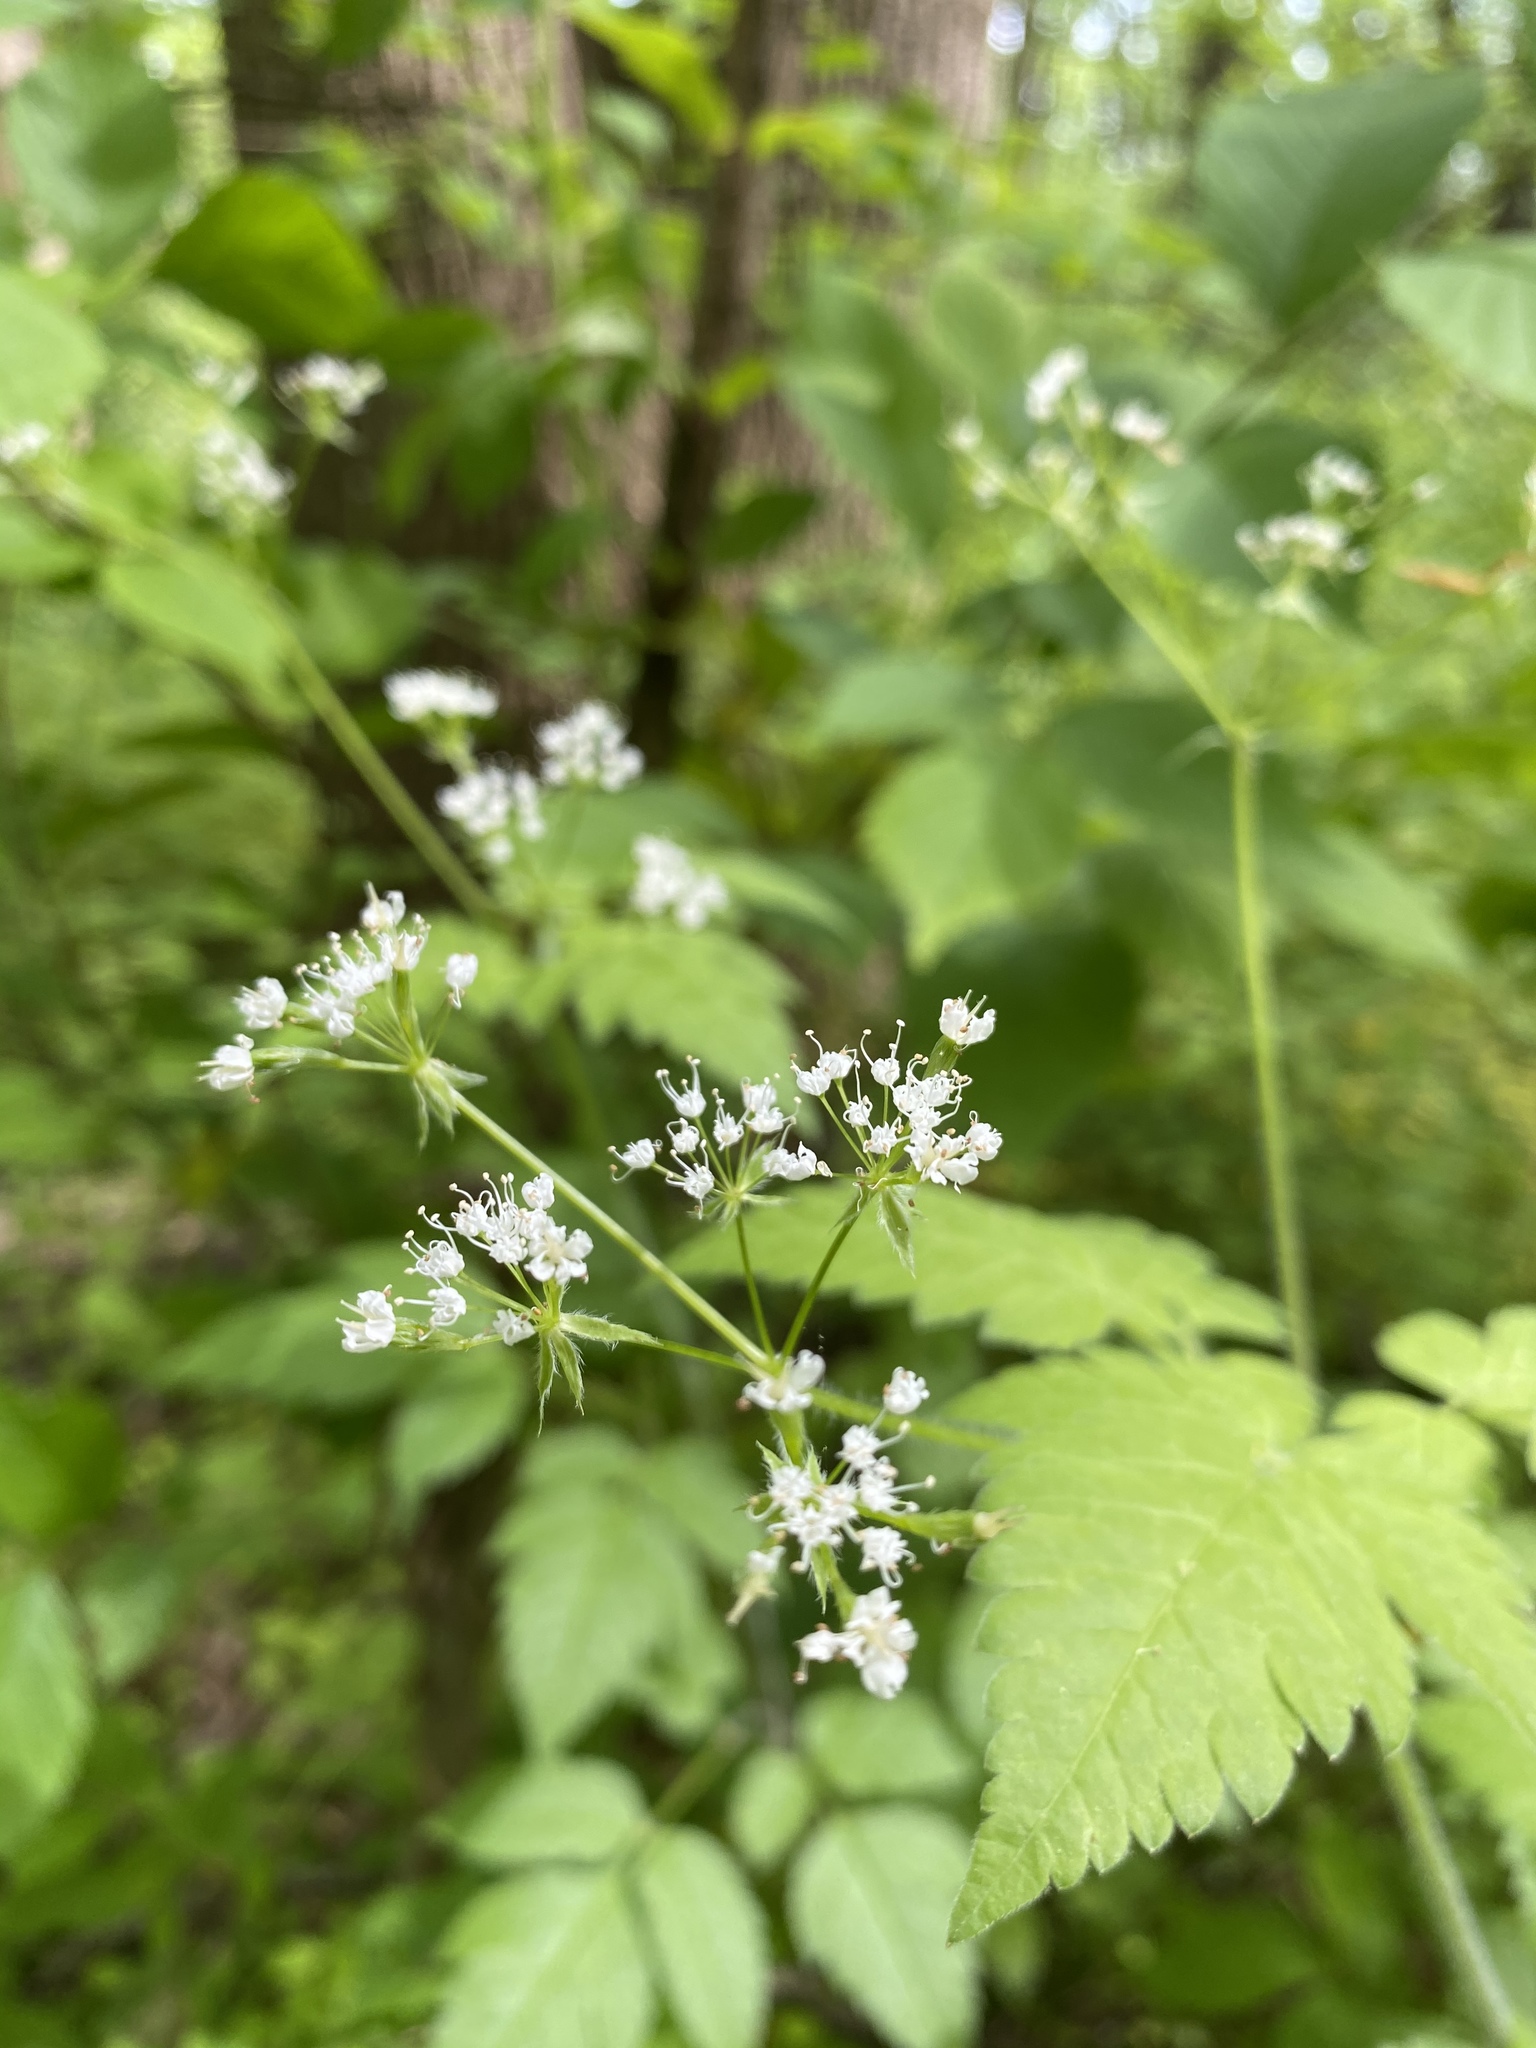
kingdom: Plantae
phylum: Tracheophyta
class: Magnoliopsida
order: Apiales
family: Apiaceae
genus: Osmorhiza
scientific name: Osmorhiza longistylis
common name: Smooth sweet cicely
